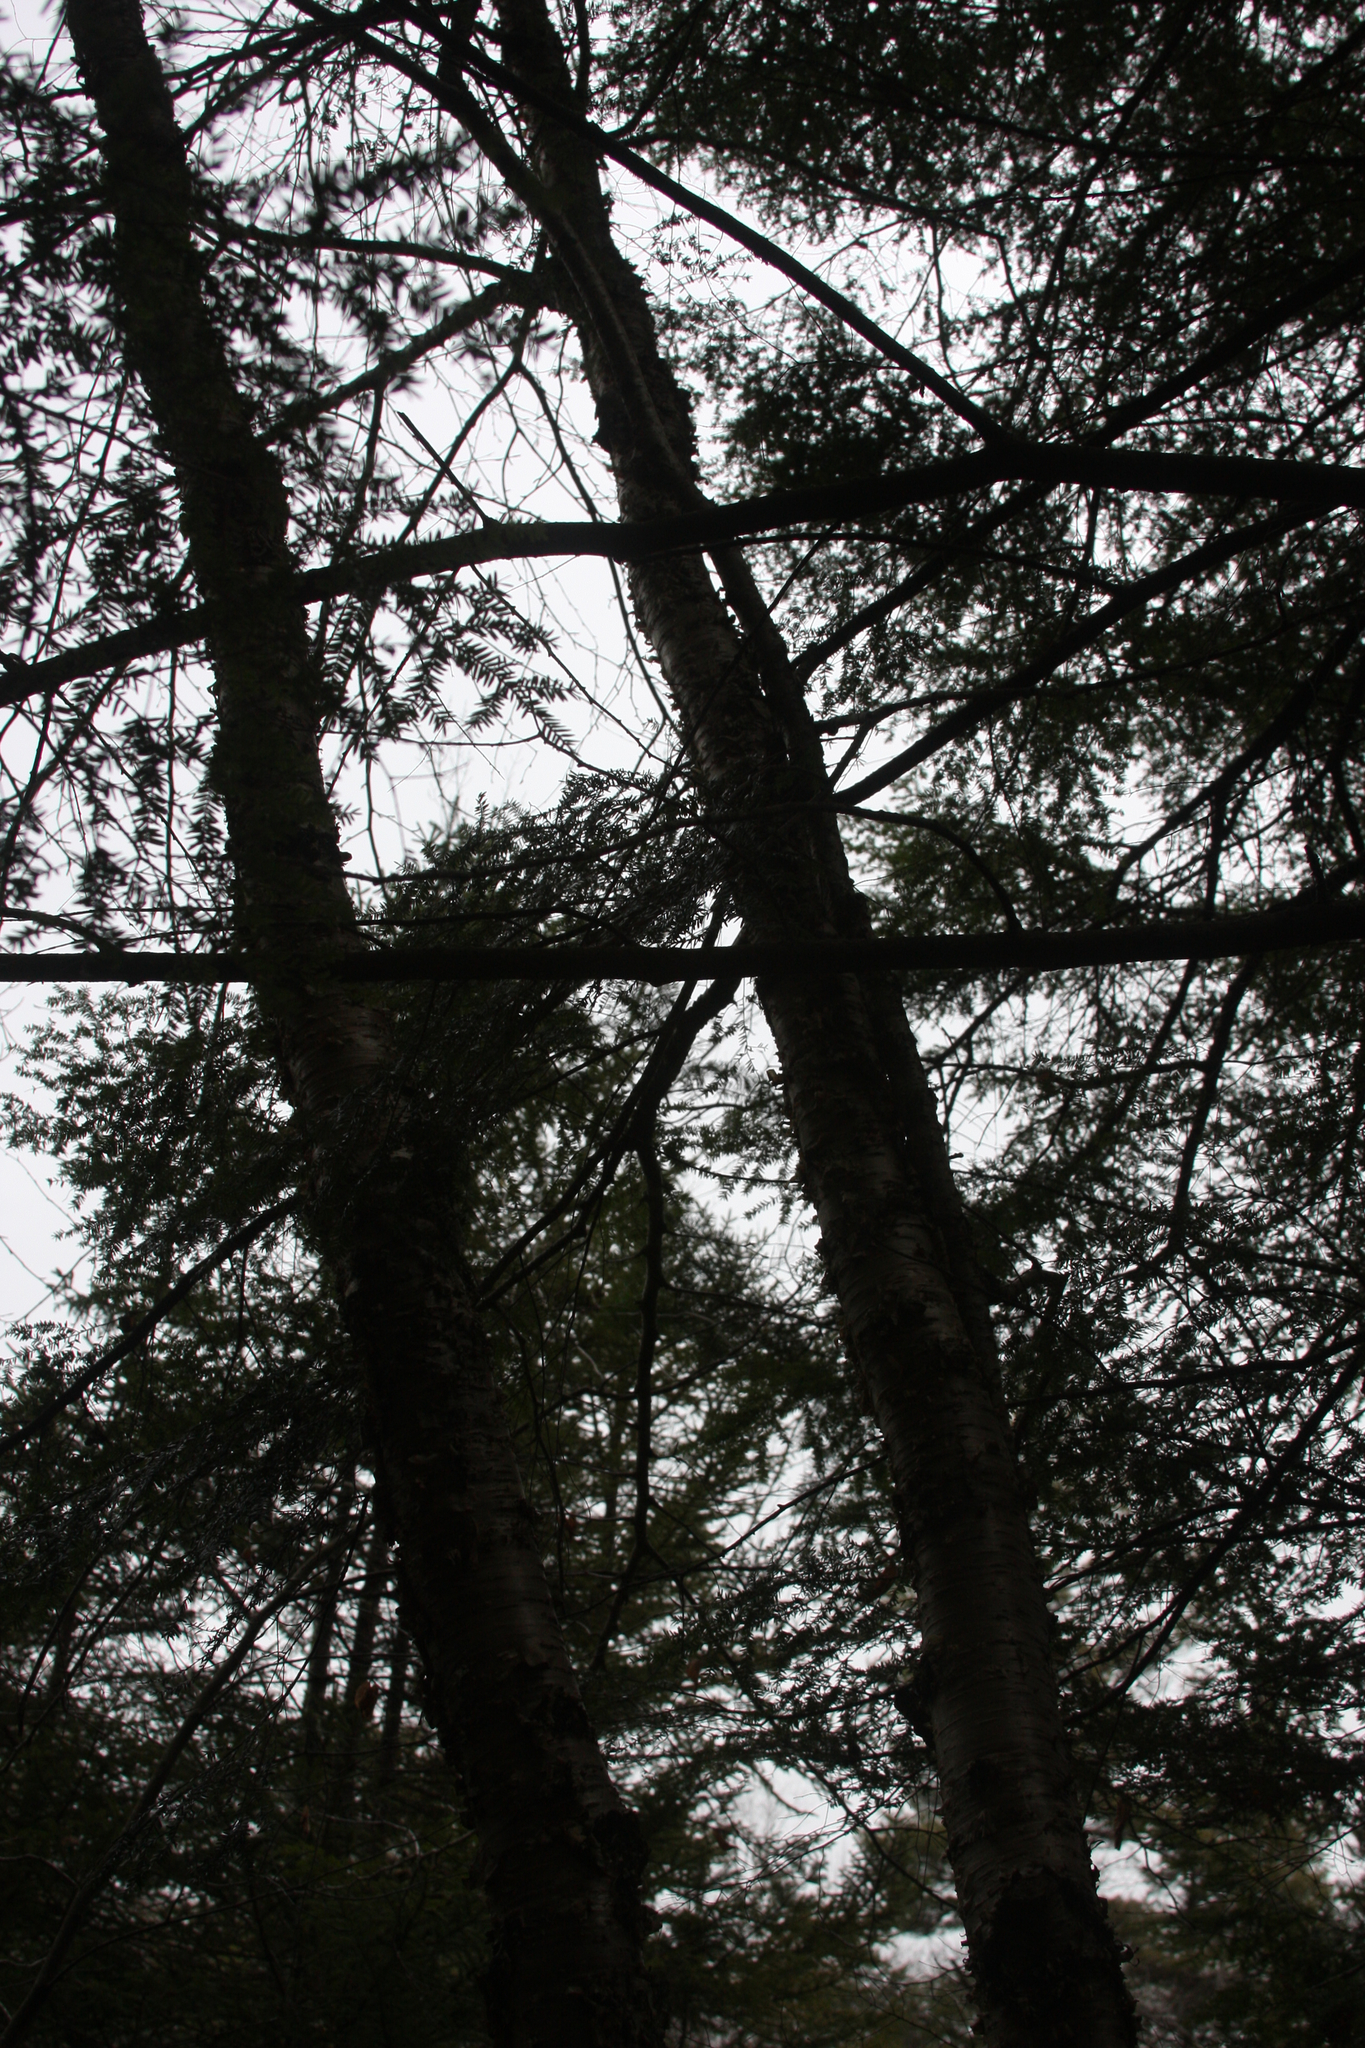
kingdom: Plantae
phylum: Tracheophyta
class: Magnoliopsida
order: Fagales
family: Betulaceae
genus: Betula
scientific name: Betula alleghaniensis
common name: Yellow birch
